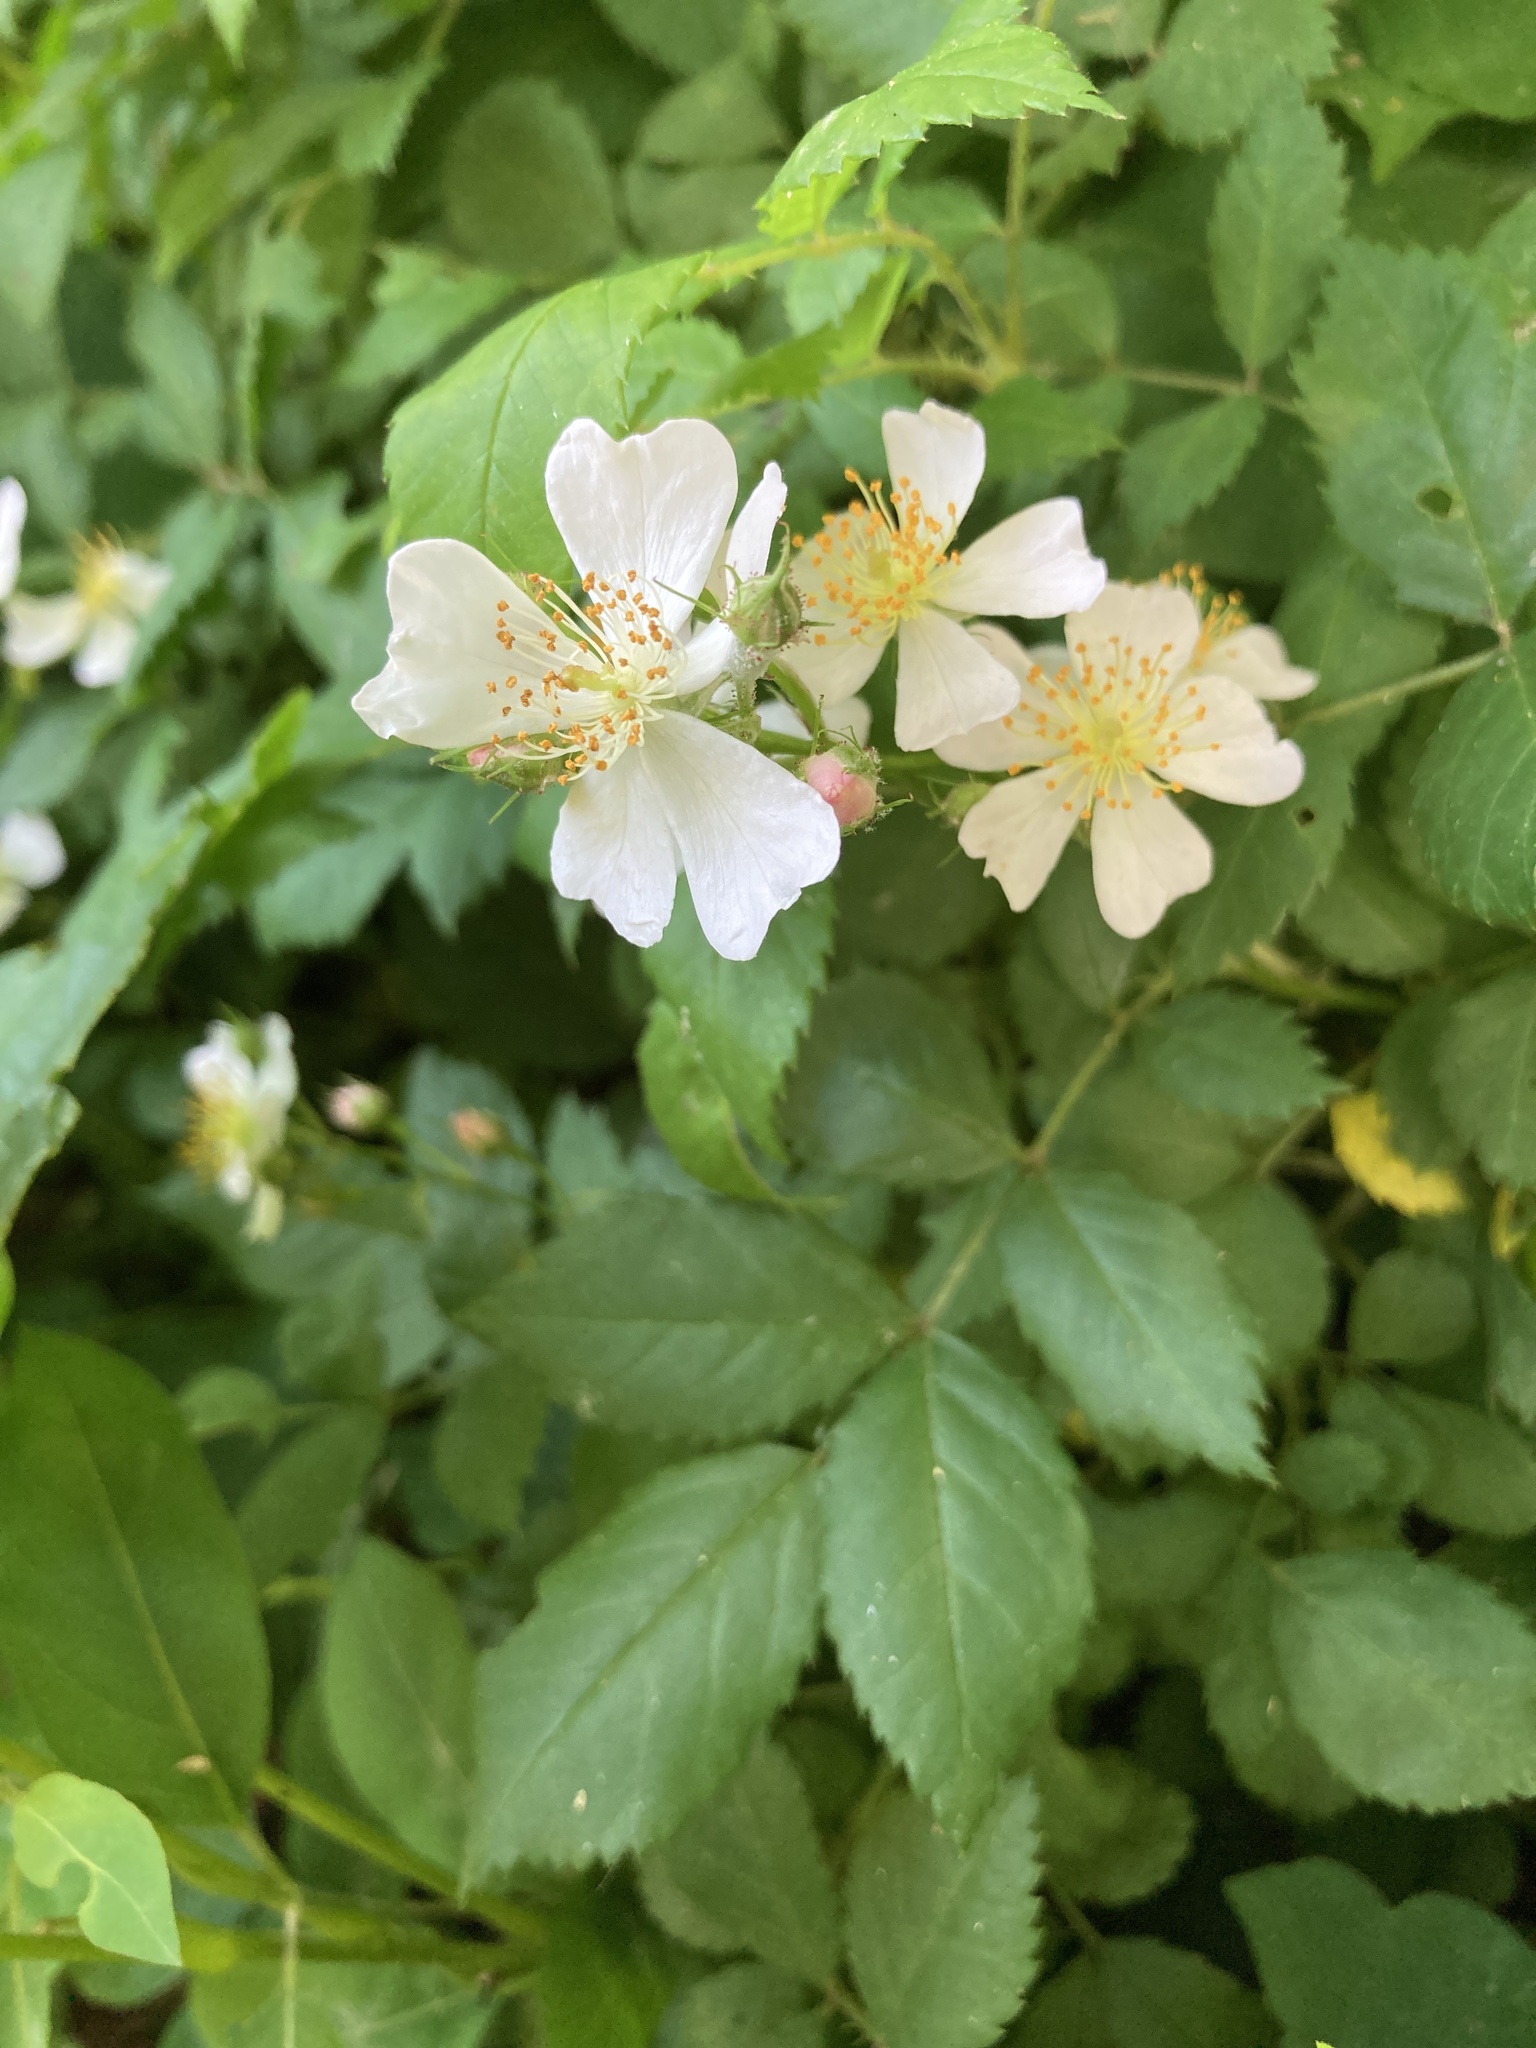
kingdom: Plantae
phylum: Tracheophyta
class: Magnoliopsida
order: Rosales
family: Rosaceae
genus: Rosa
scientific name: Rosa multiflora
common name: Multiflora rose
